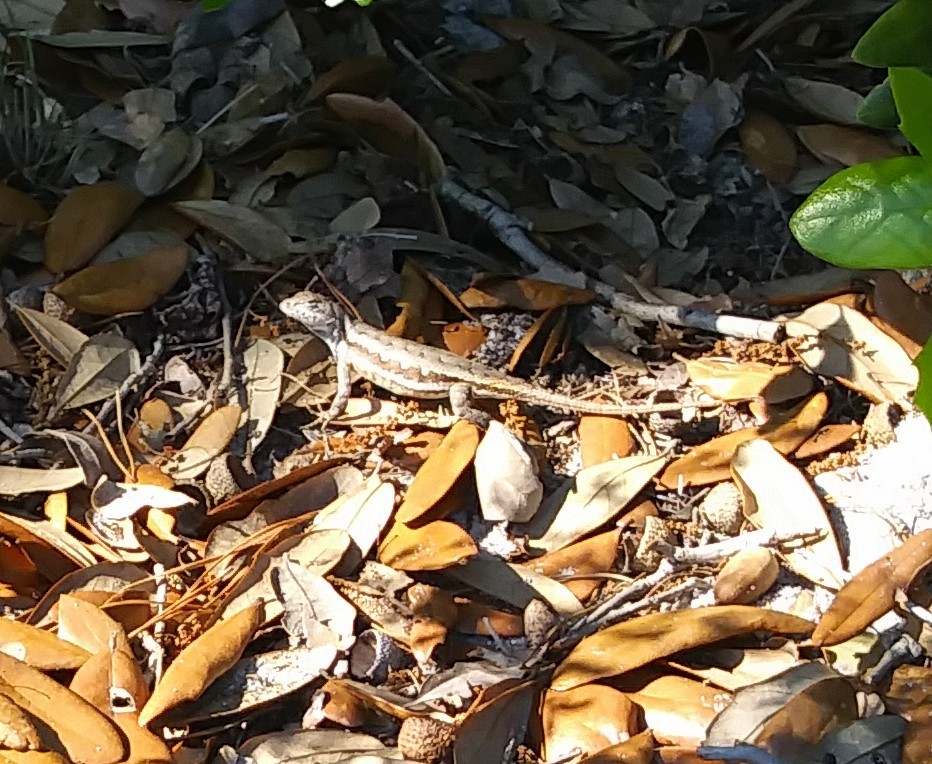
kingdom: Animalia
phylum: Chordata
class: Squamata
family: Phrynosomatidae
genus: Sceloporus
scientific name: Sceloporus woodi
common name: Florida scrub lizard
